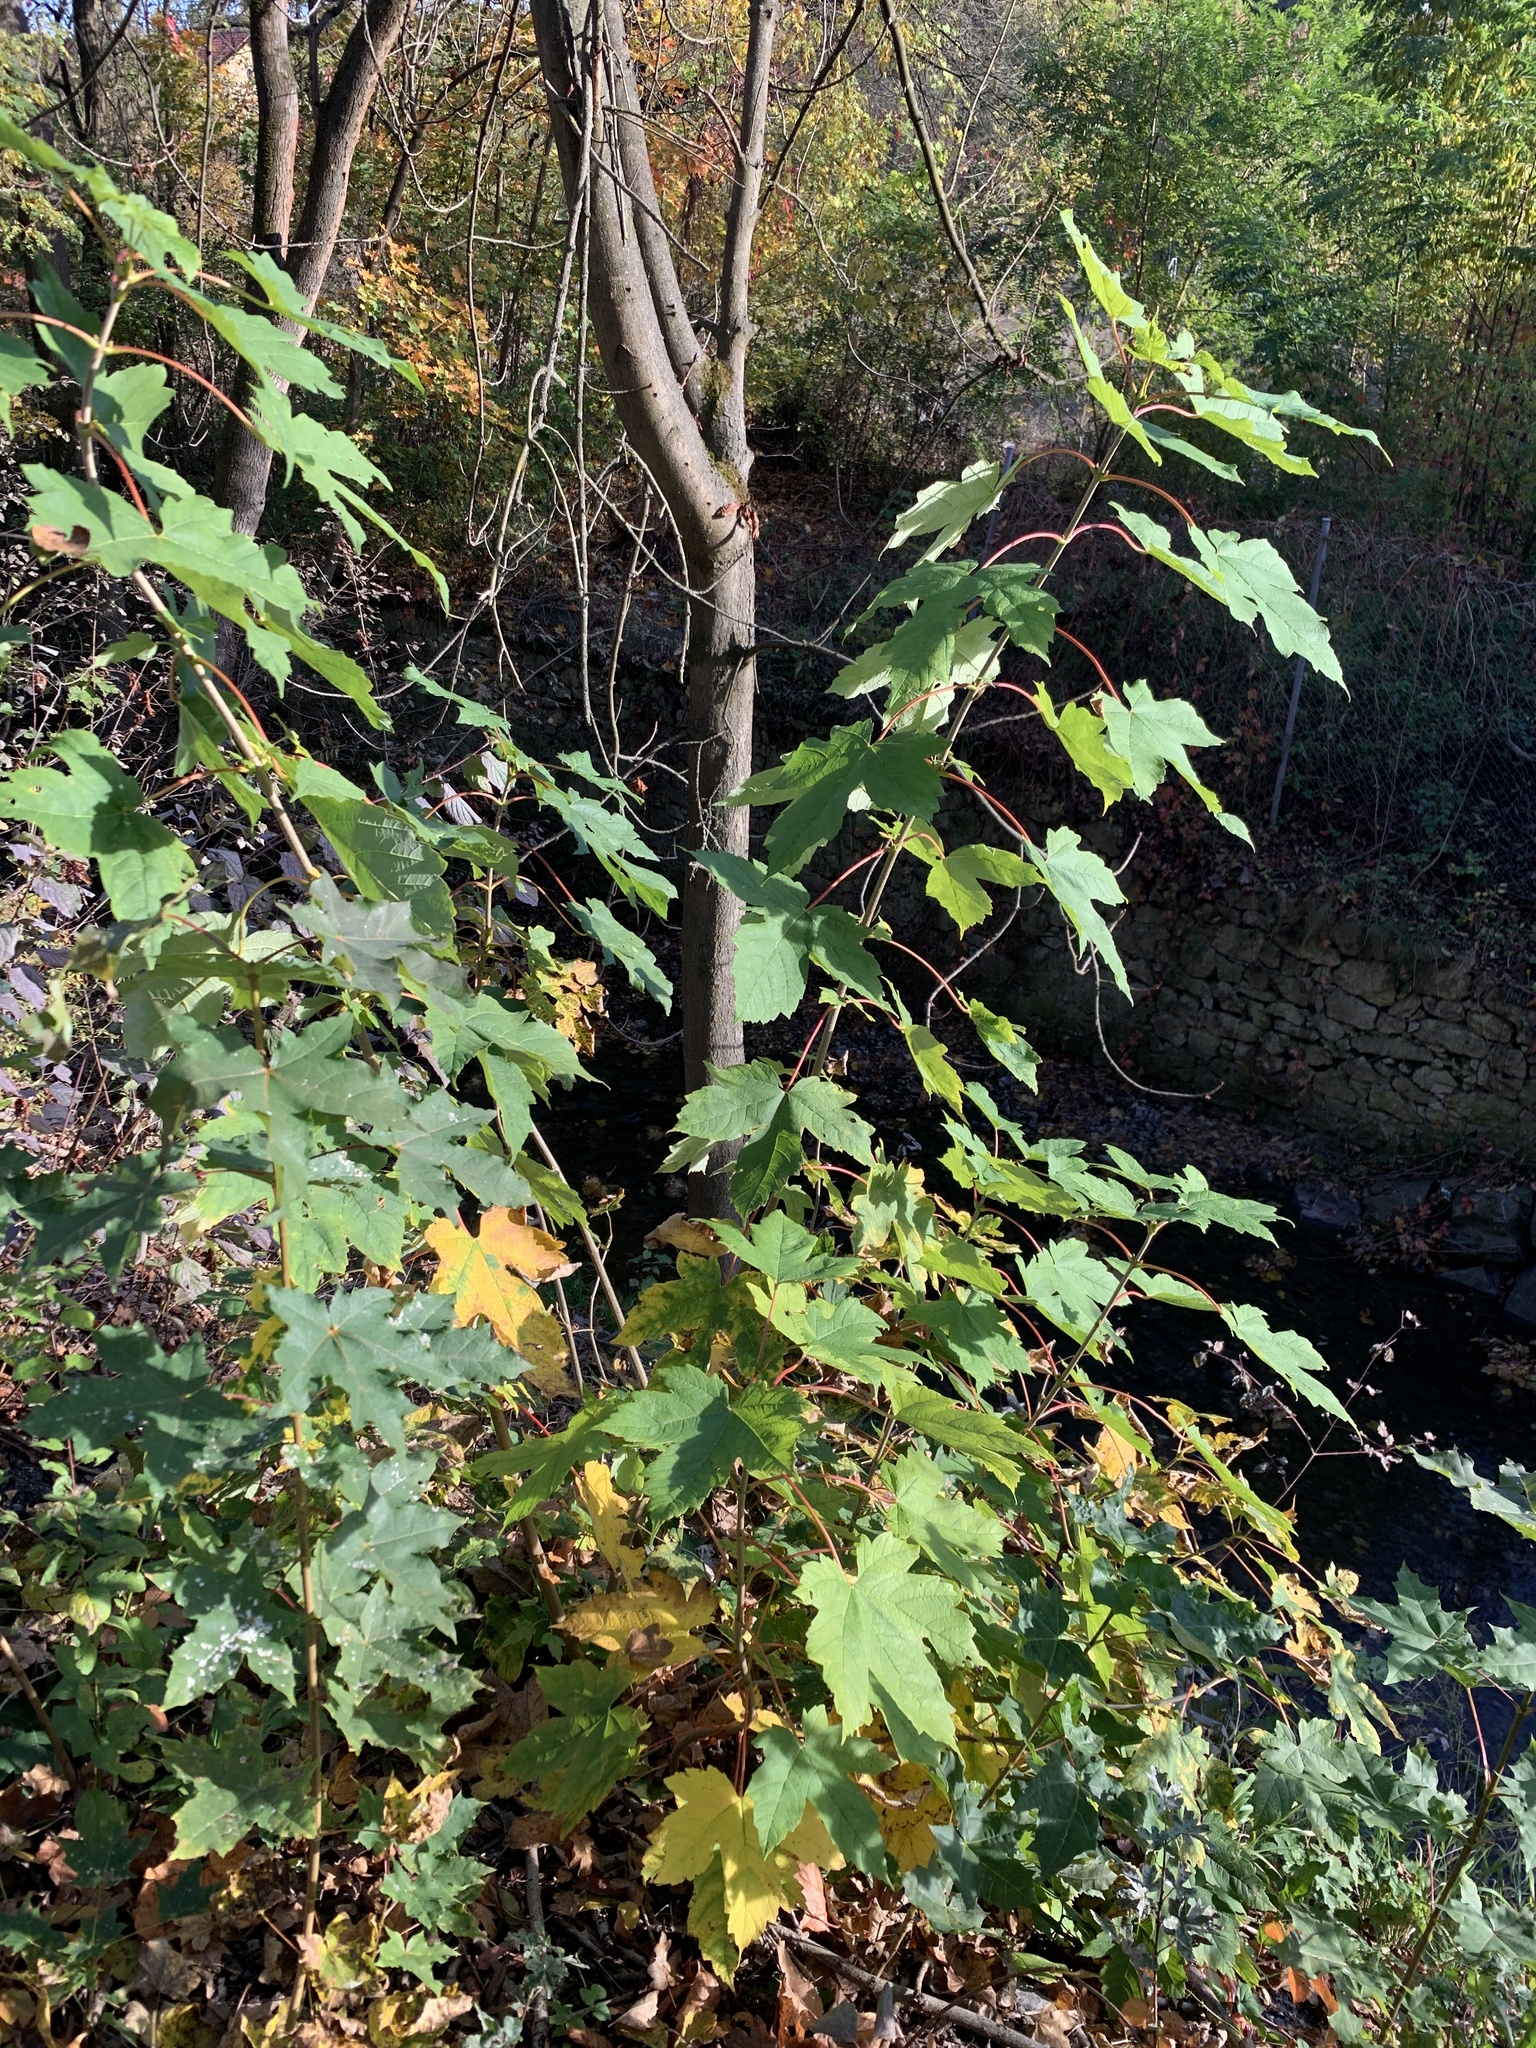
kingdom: Plantae
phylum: Tracheophyta
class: Magnoliopsida
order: Sapindales
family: Sapindaceae
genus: Acer
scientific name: Acer pseudoplatanus
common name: Sycamore
